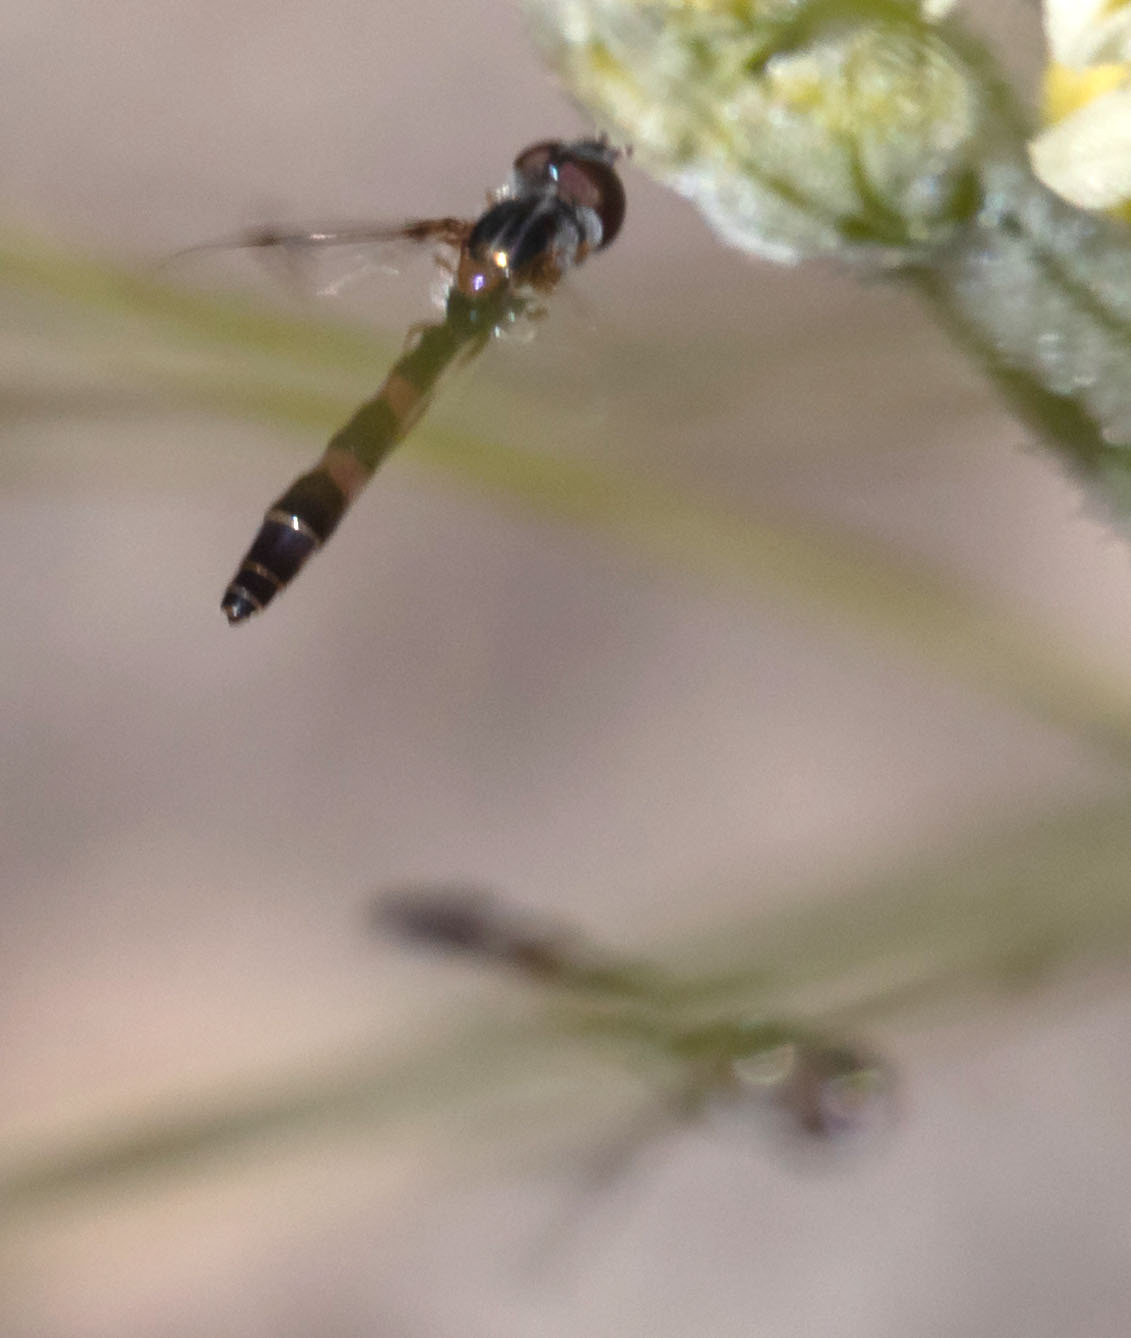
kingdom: Animalia
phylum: Arthropoda
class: Insecta
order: Diptera
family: Syrphidae
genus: Hypocritanus
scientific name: Hypocritanus lemur
